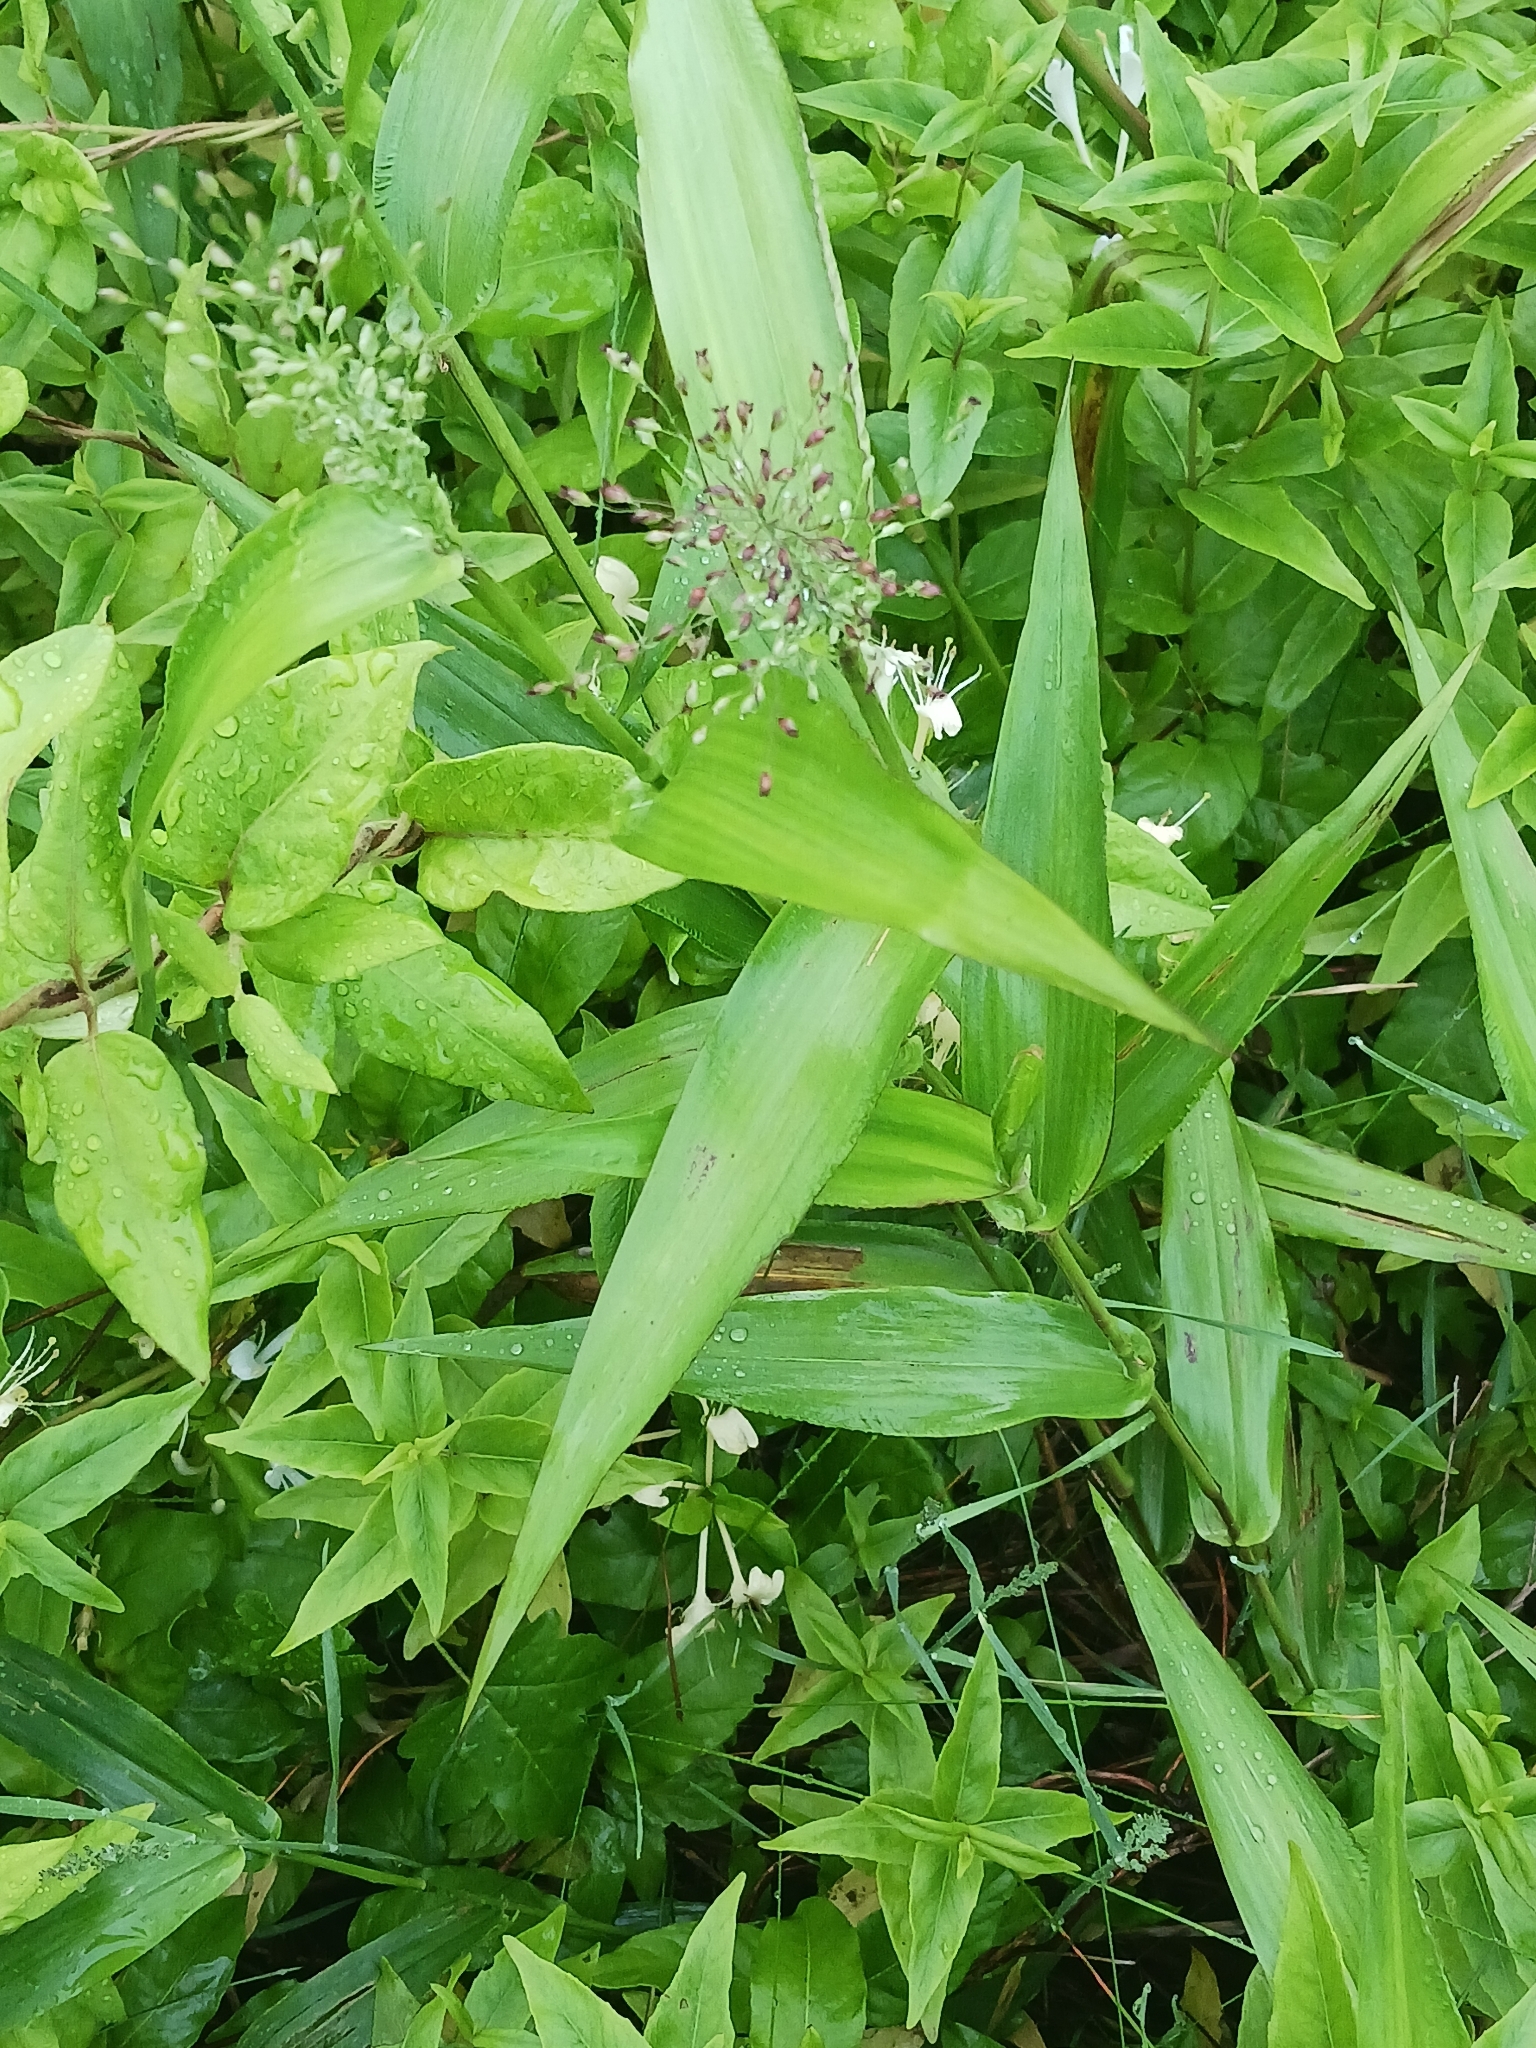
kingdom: Plantae
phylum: Tracheophyta
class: Liliopsida
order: Poales
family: Poaceae
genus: Dichanthelium
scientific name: Dichanthelium clandestinum
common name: Deer-tongue grass
